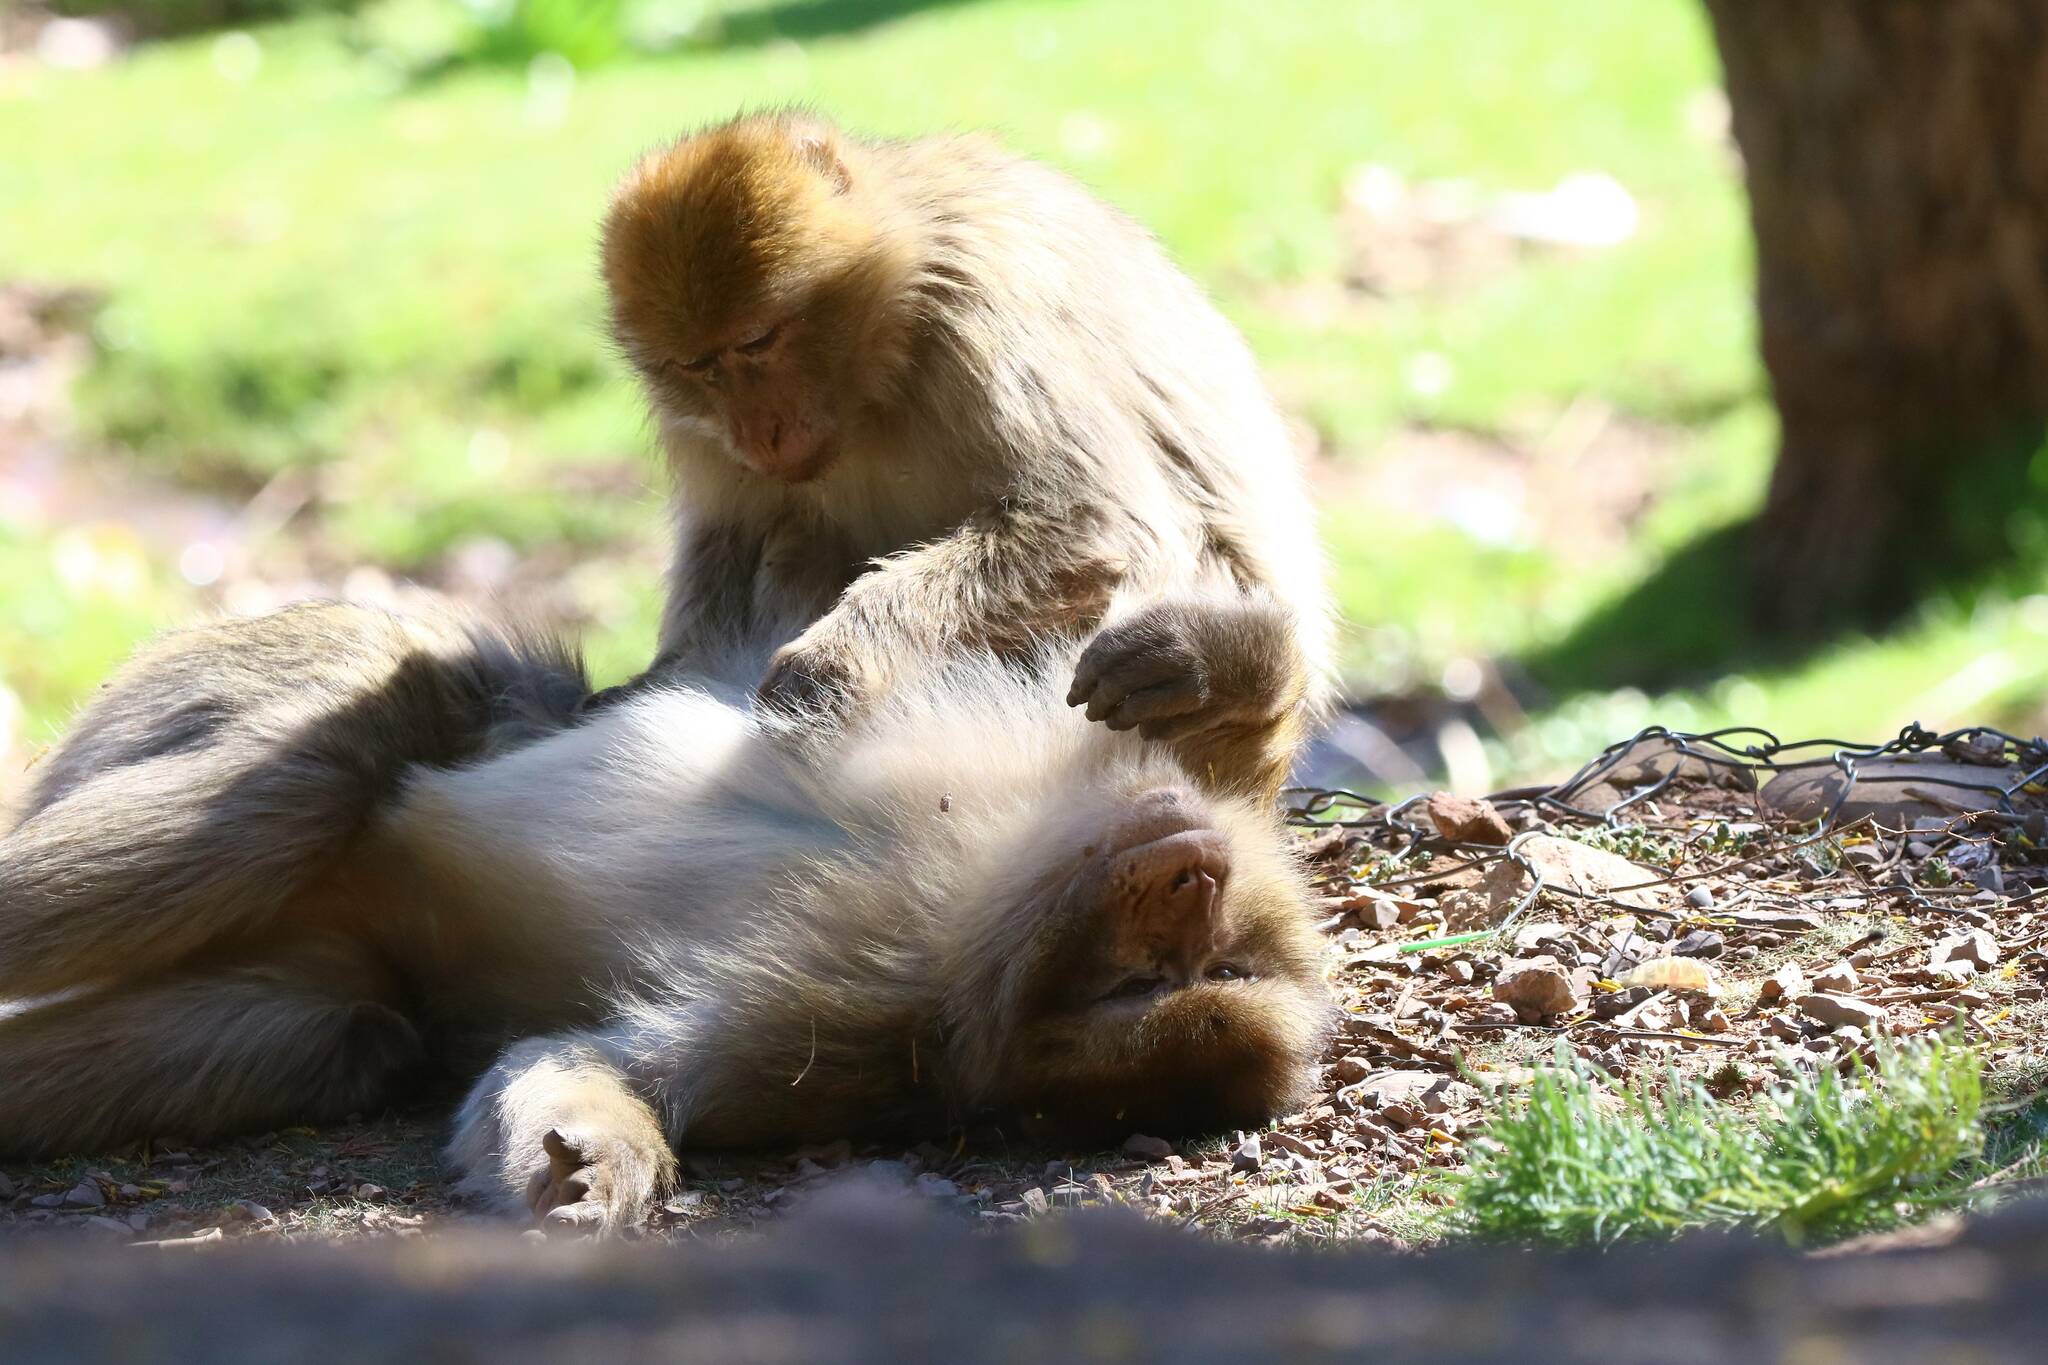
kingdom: Animalia
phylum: Chordata
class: Mammalia
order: Primates
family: Cercopithecidae
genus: Macaca
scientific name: Macaca sylvanus
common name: Barbary macaque
